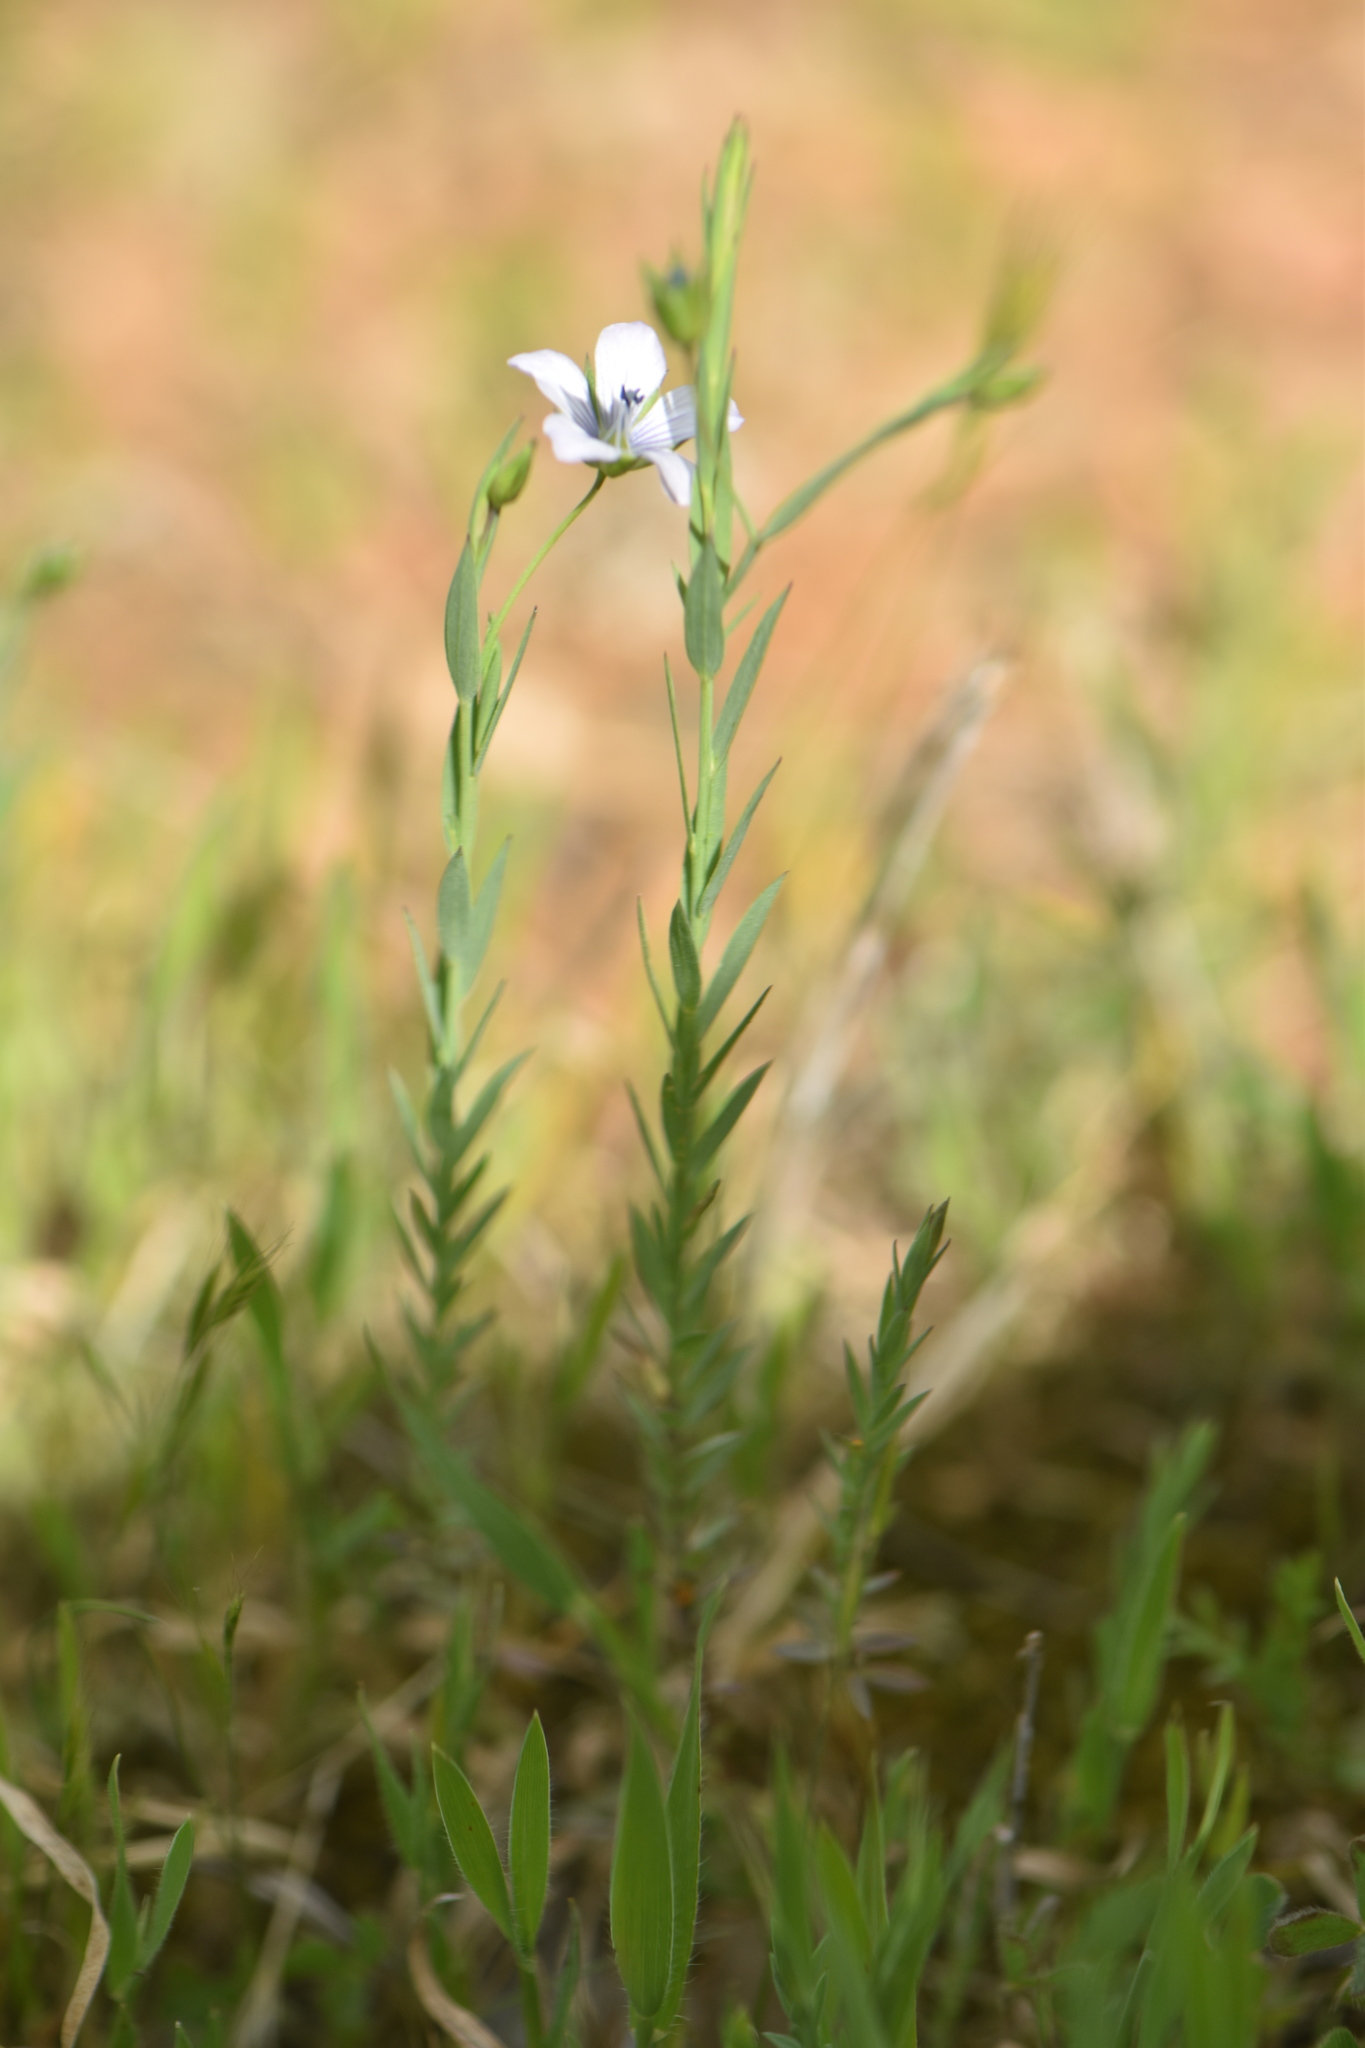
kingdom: Plantae
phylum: Tracheophyta
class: Magnoliopsida
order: Malpighiales
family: Linaceae
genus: Linum
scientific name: Linum bienne
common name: Pale flax
